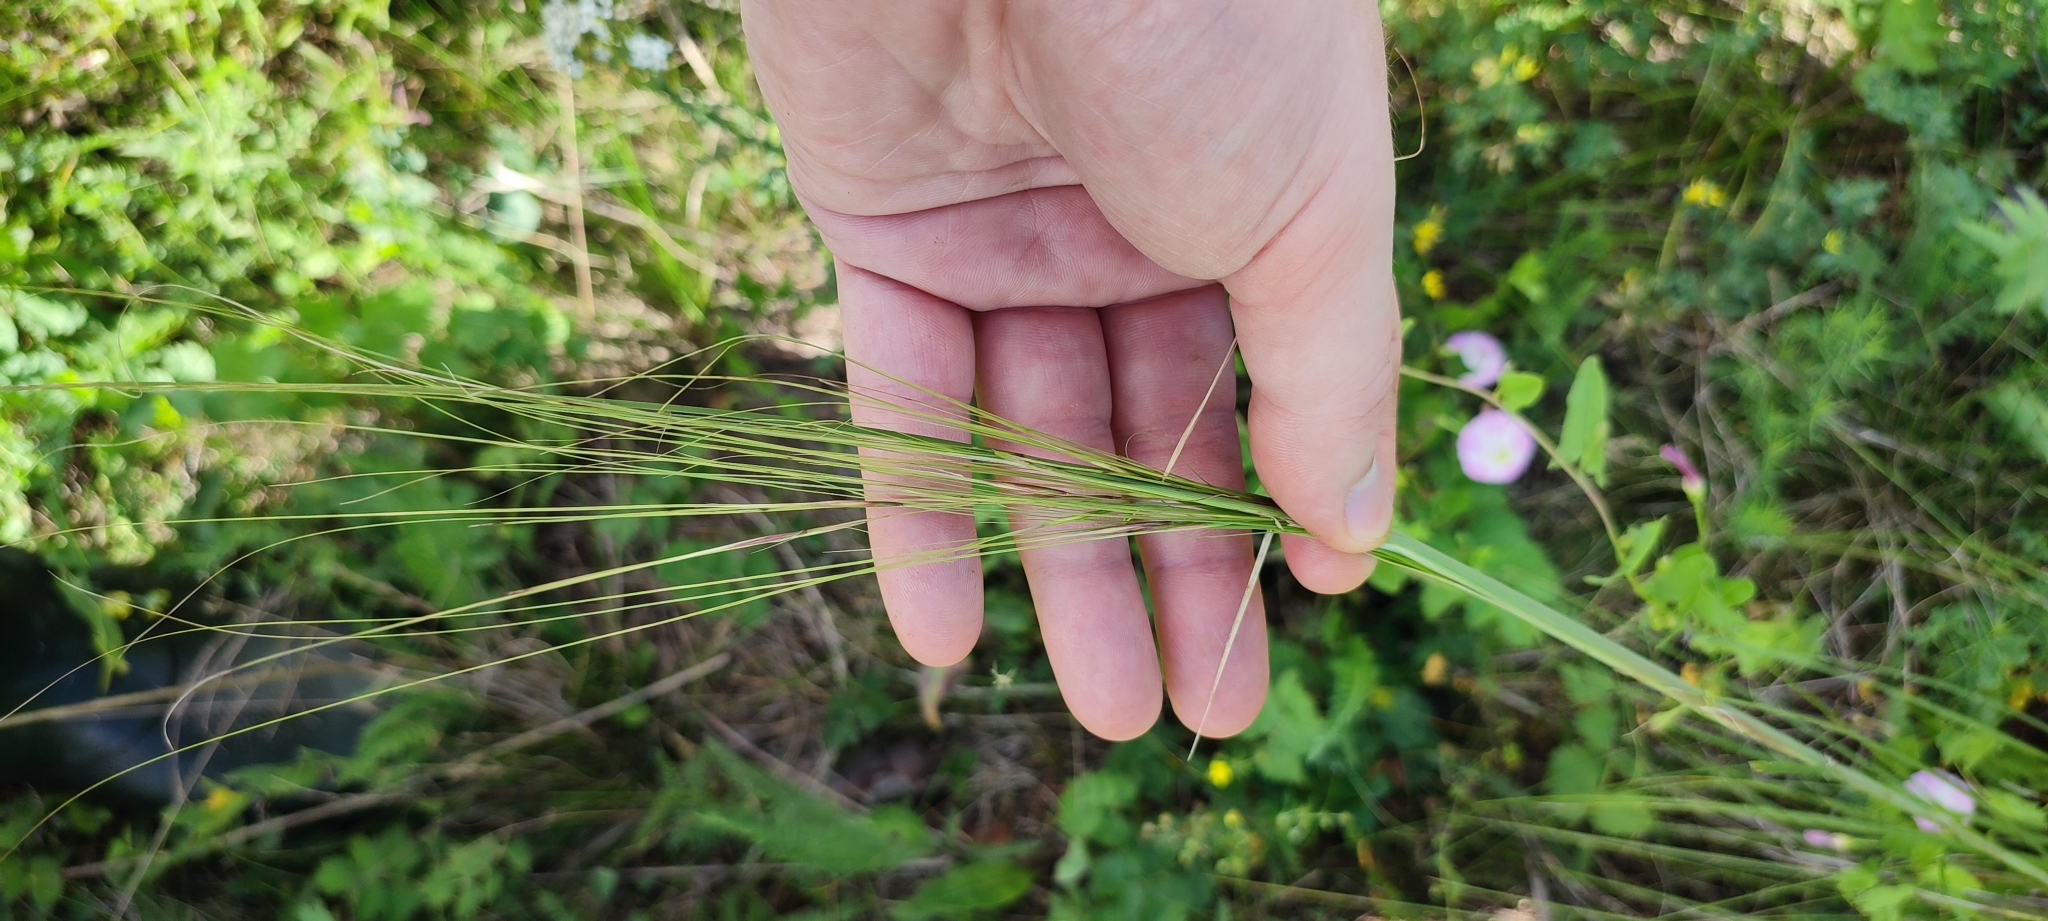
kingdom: Plantae
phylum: Tracheophyta
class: Liliopsida
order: Poales
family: Poaceae
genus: Stipa
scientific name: Stipa capillata
